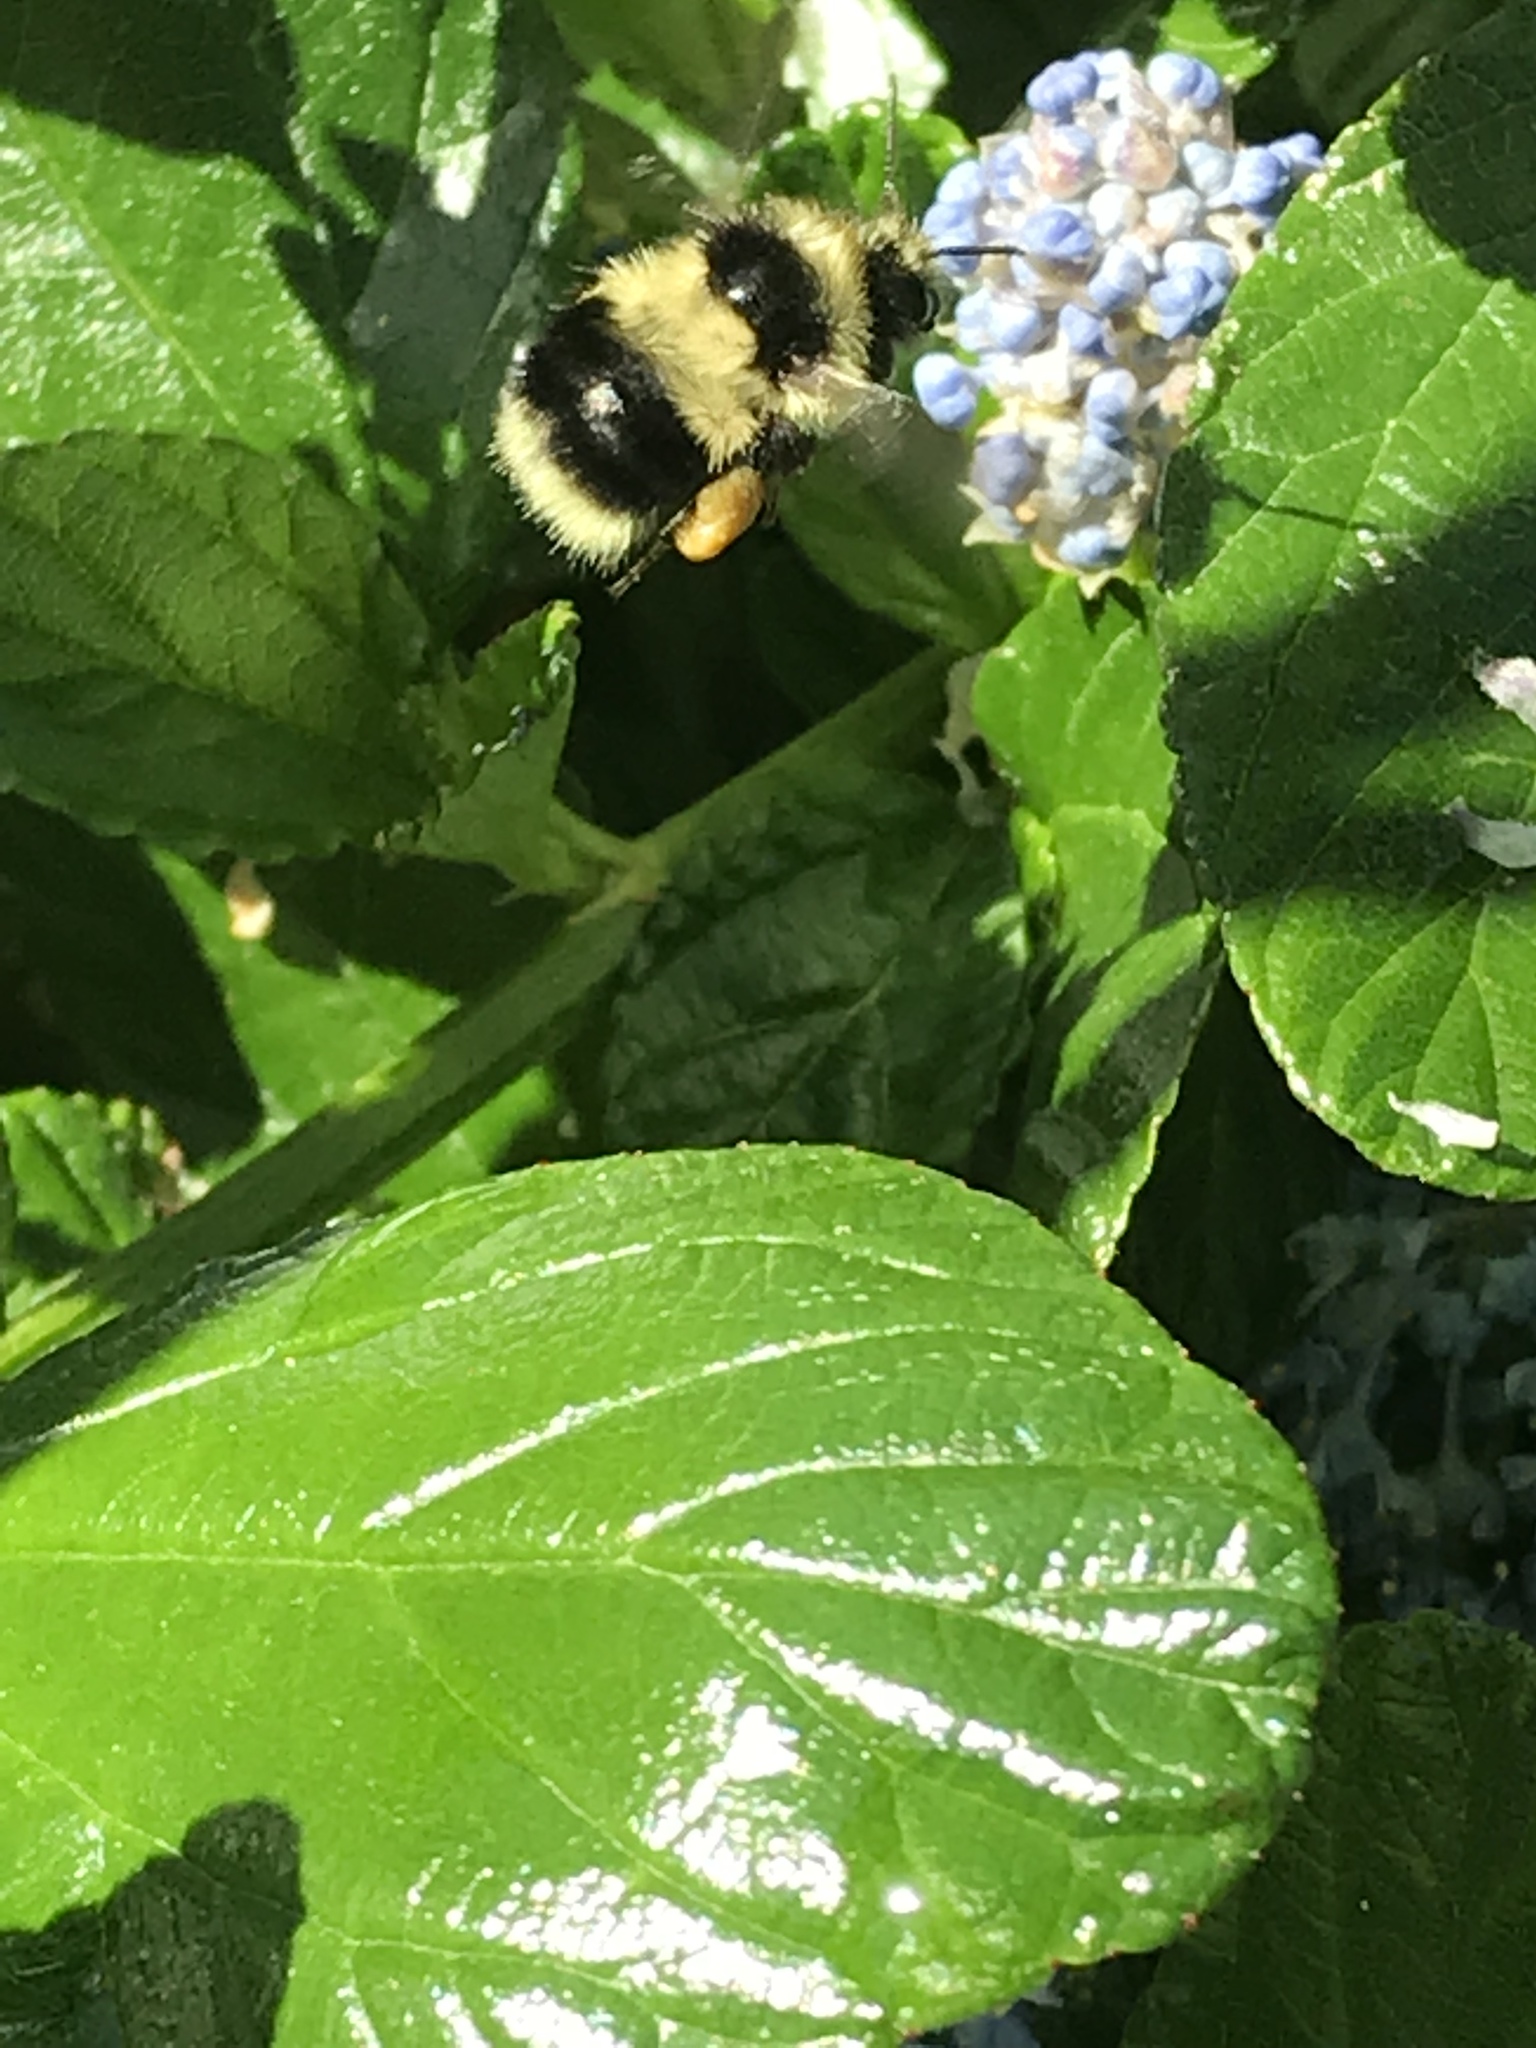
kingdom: Animalia
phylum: Arthropoda
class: Insecta
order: Hymenoptera
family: Apidae
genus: Bombus
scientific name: Bombus melanopygus
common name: Black tail bumble bee
